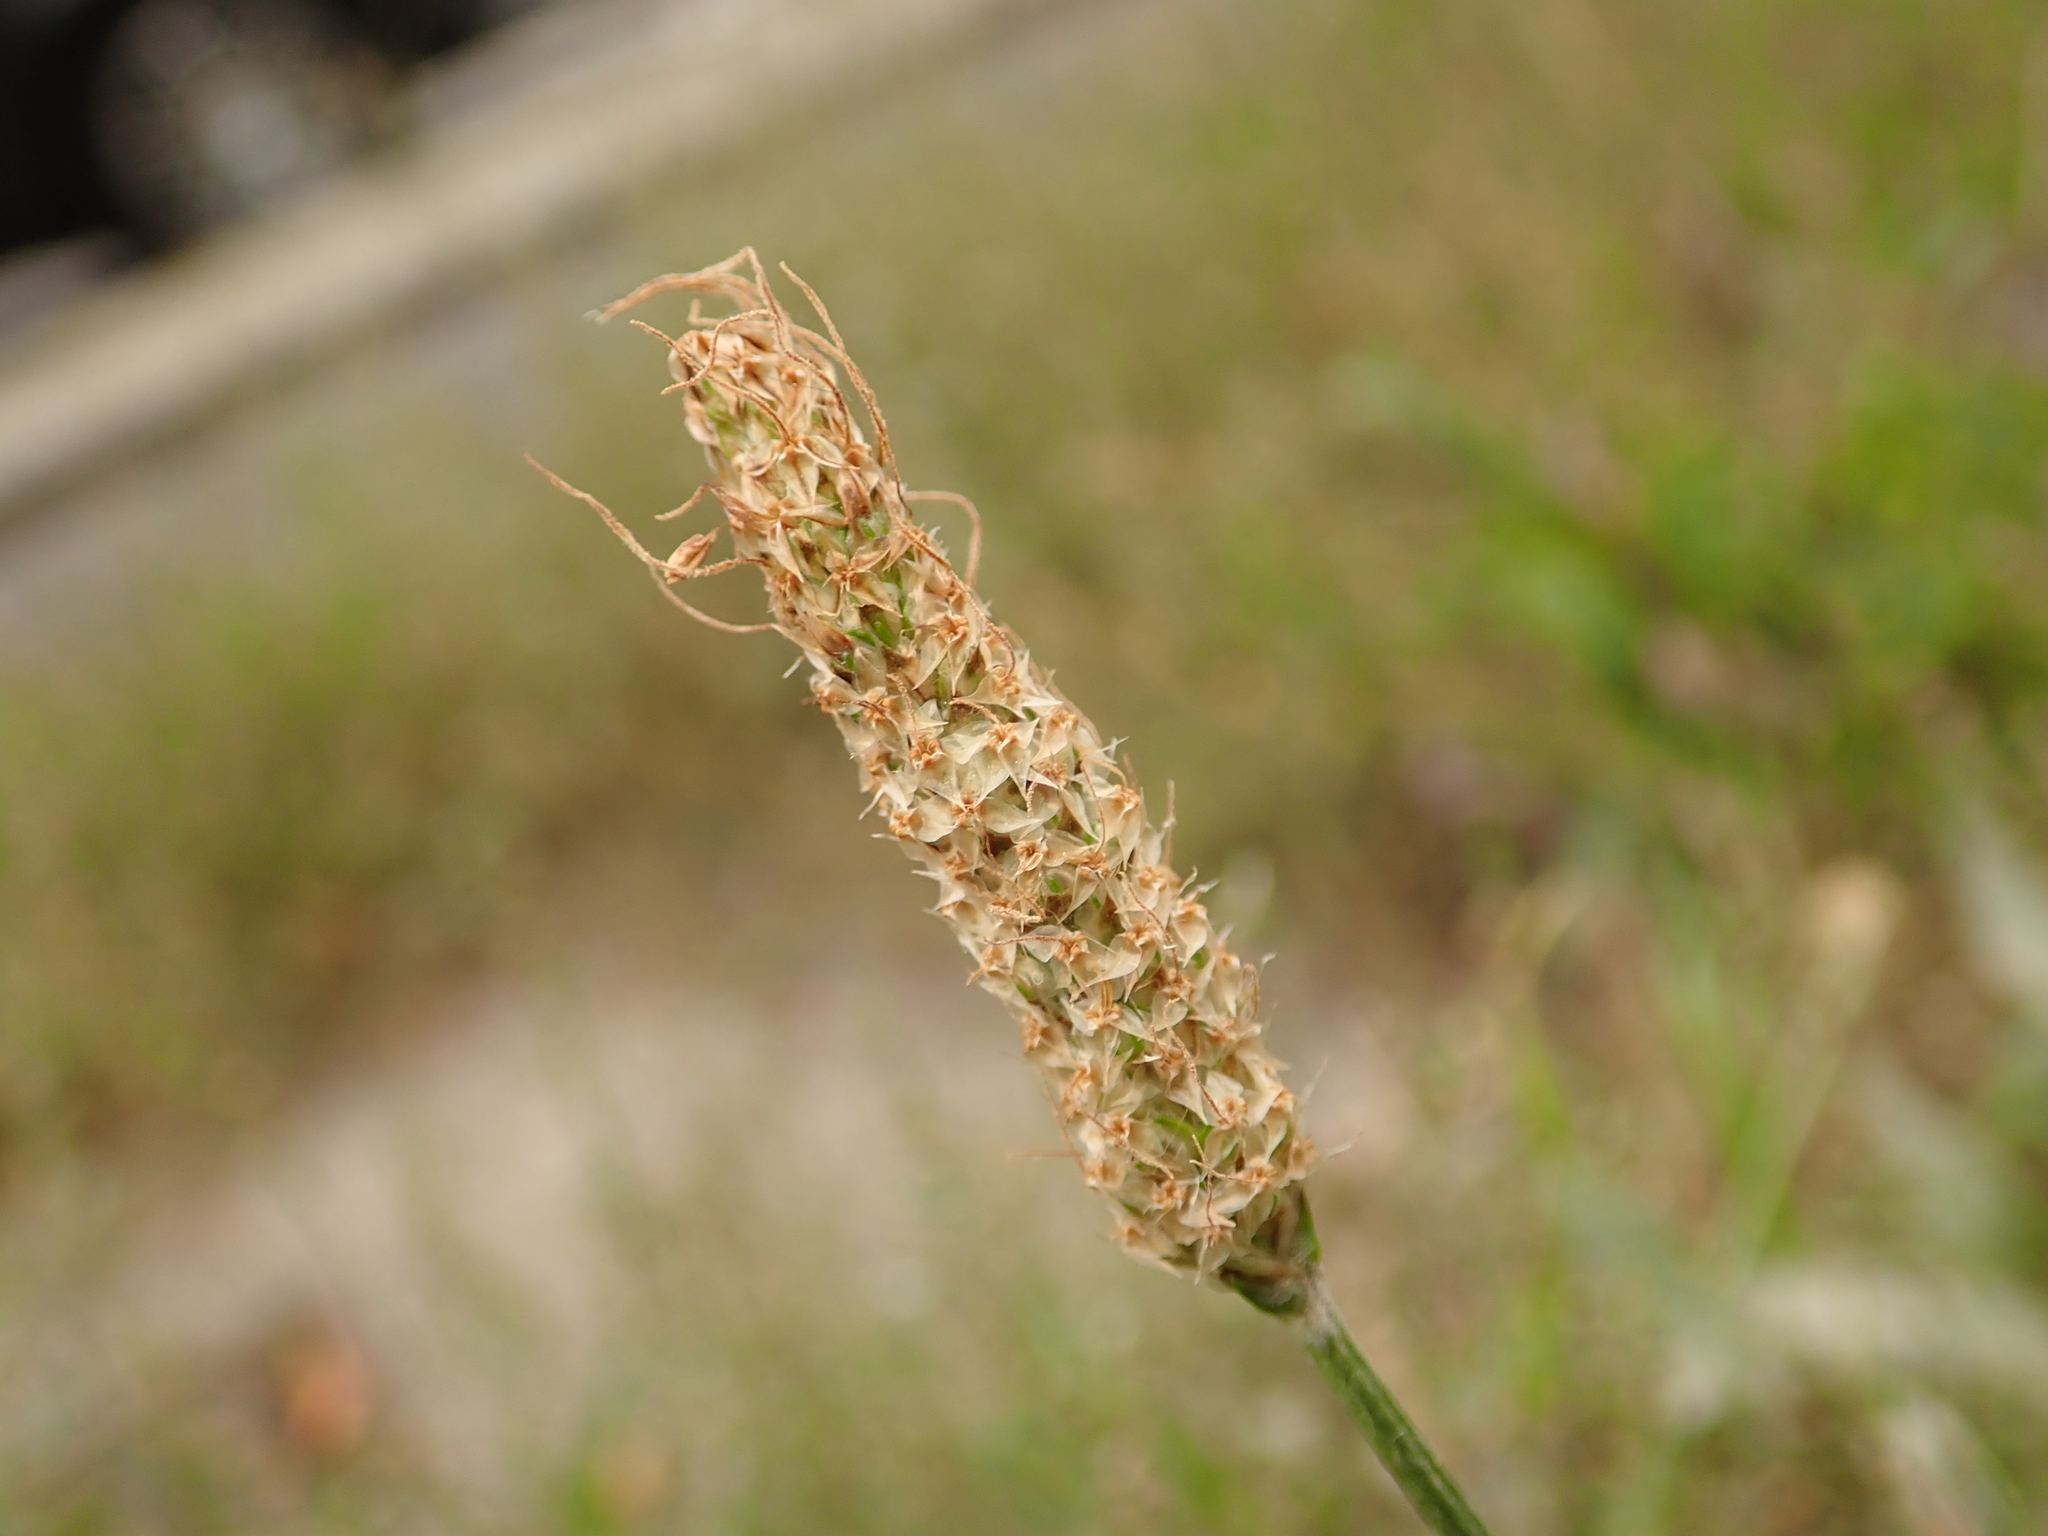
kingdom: Plantae
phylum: Tracheophyta
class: Magnoliopsida
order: Lamiales
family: Plantaginaceae
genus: Plantago
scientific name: Plantago lanceolata
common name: Ribwort plantain
